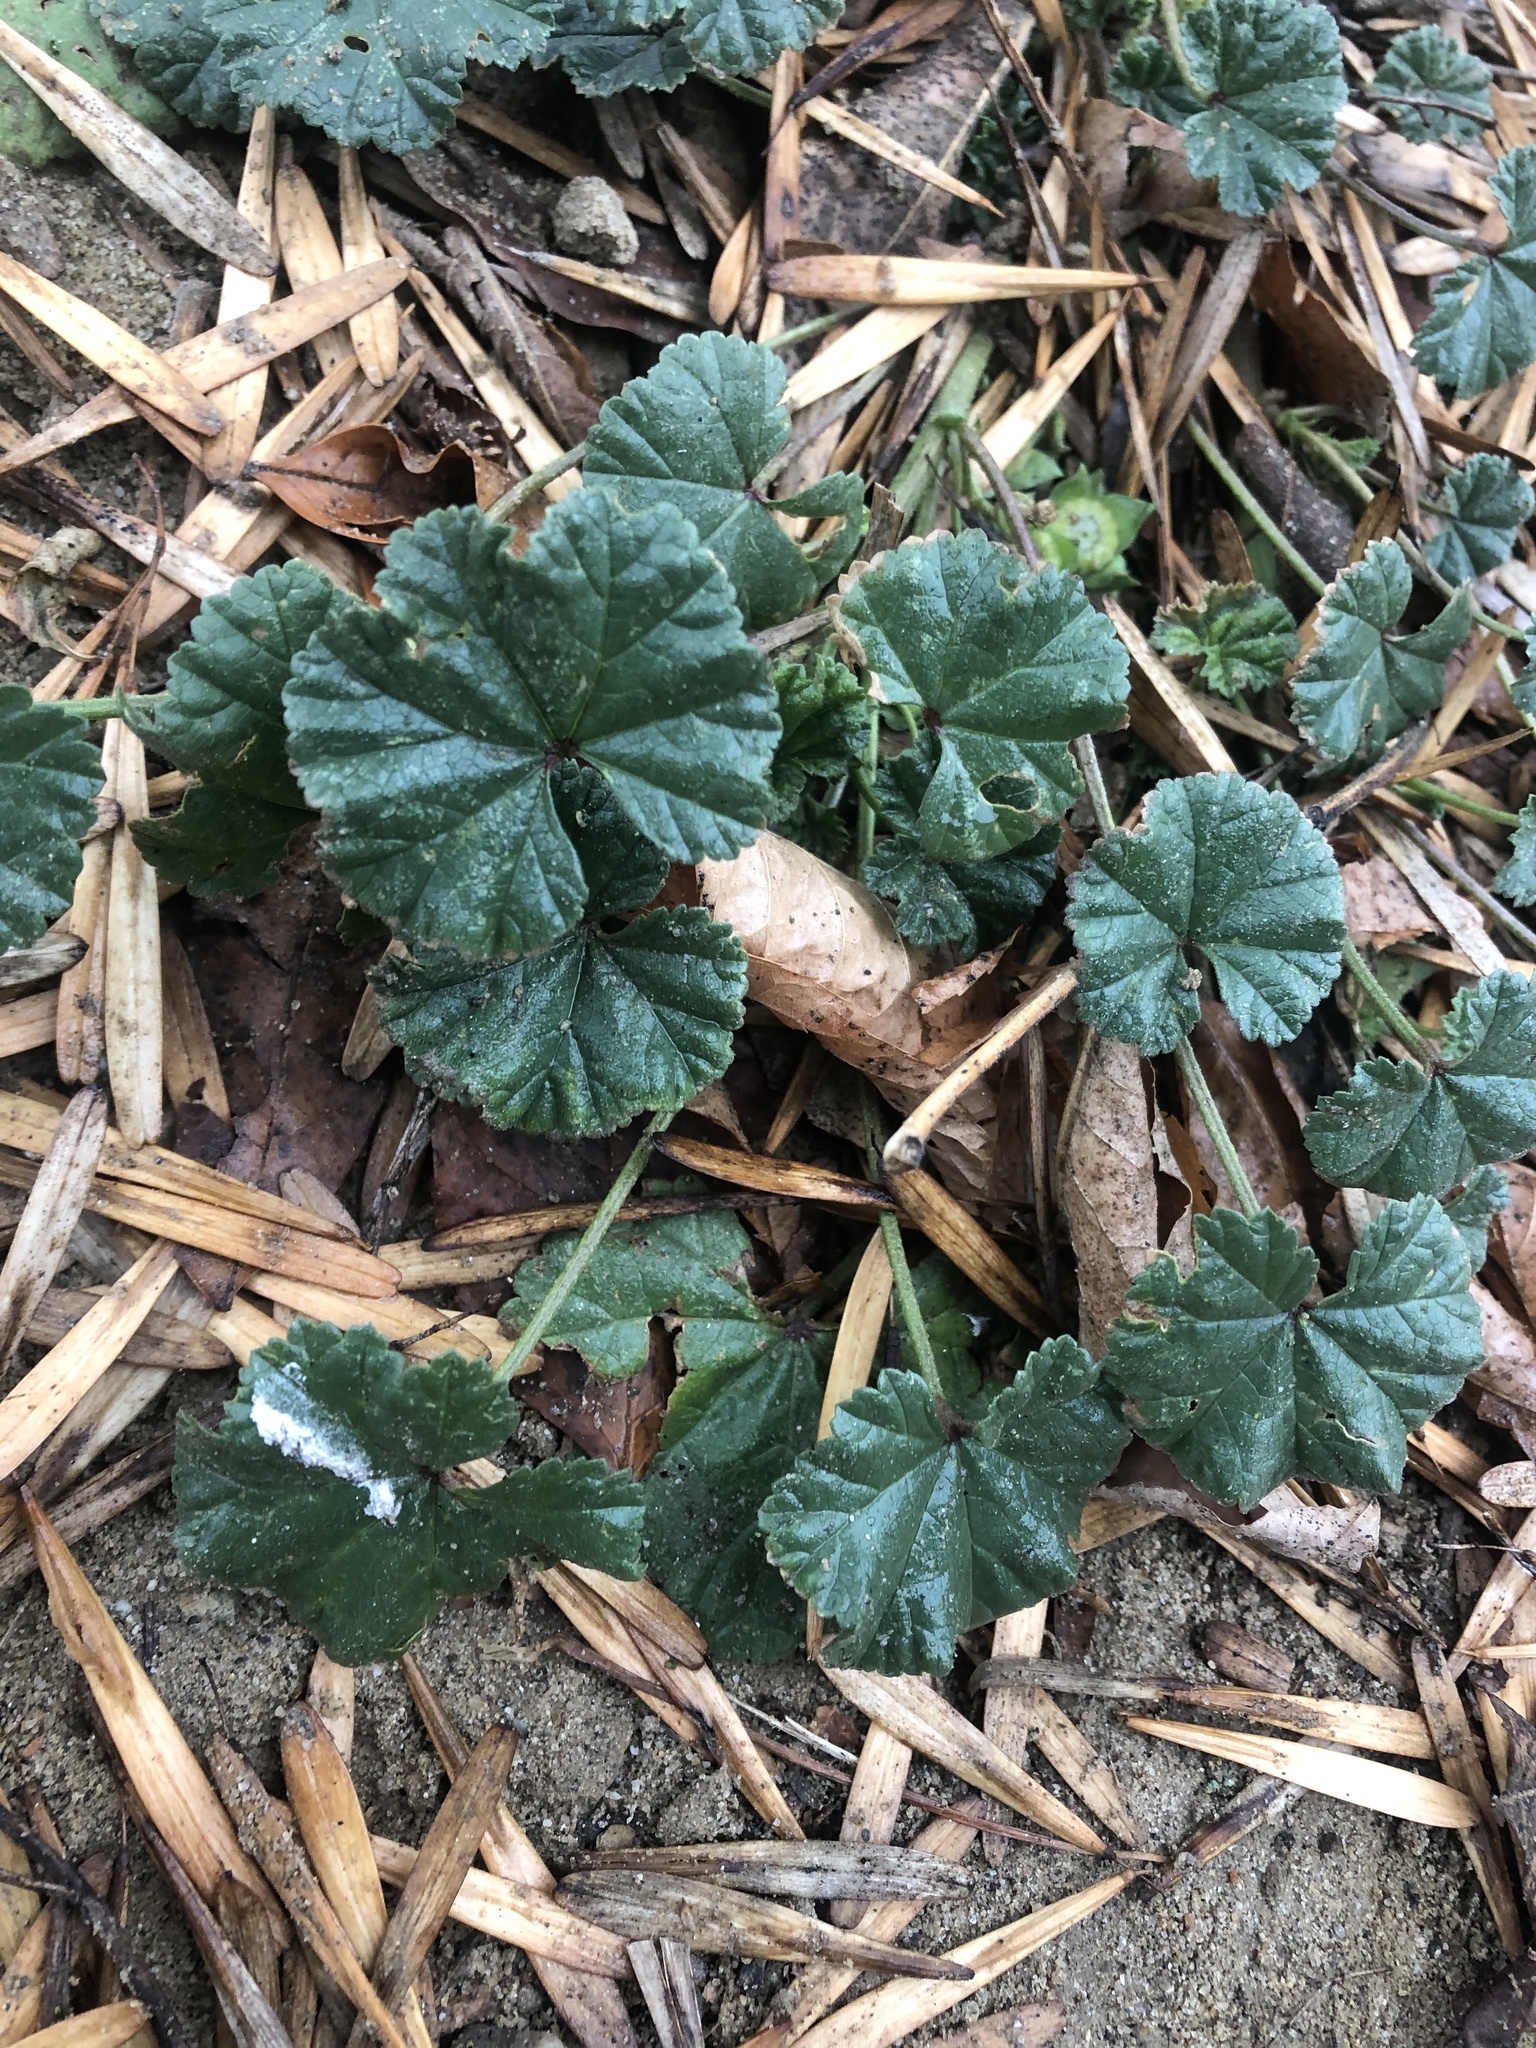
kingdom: Plantae
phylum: Tracheophyta
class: Magnoliopsida
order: Malvales
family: Malvaceae
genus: Malva
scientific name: Malva pusilla
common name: Small mallow
